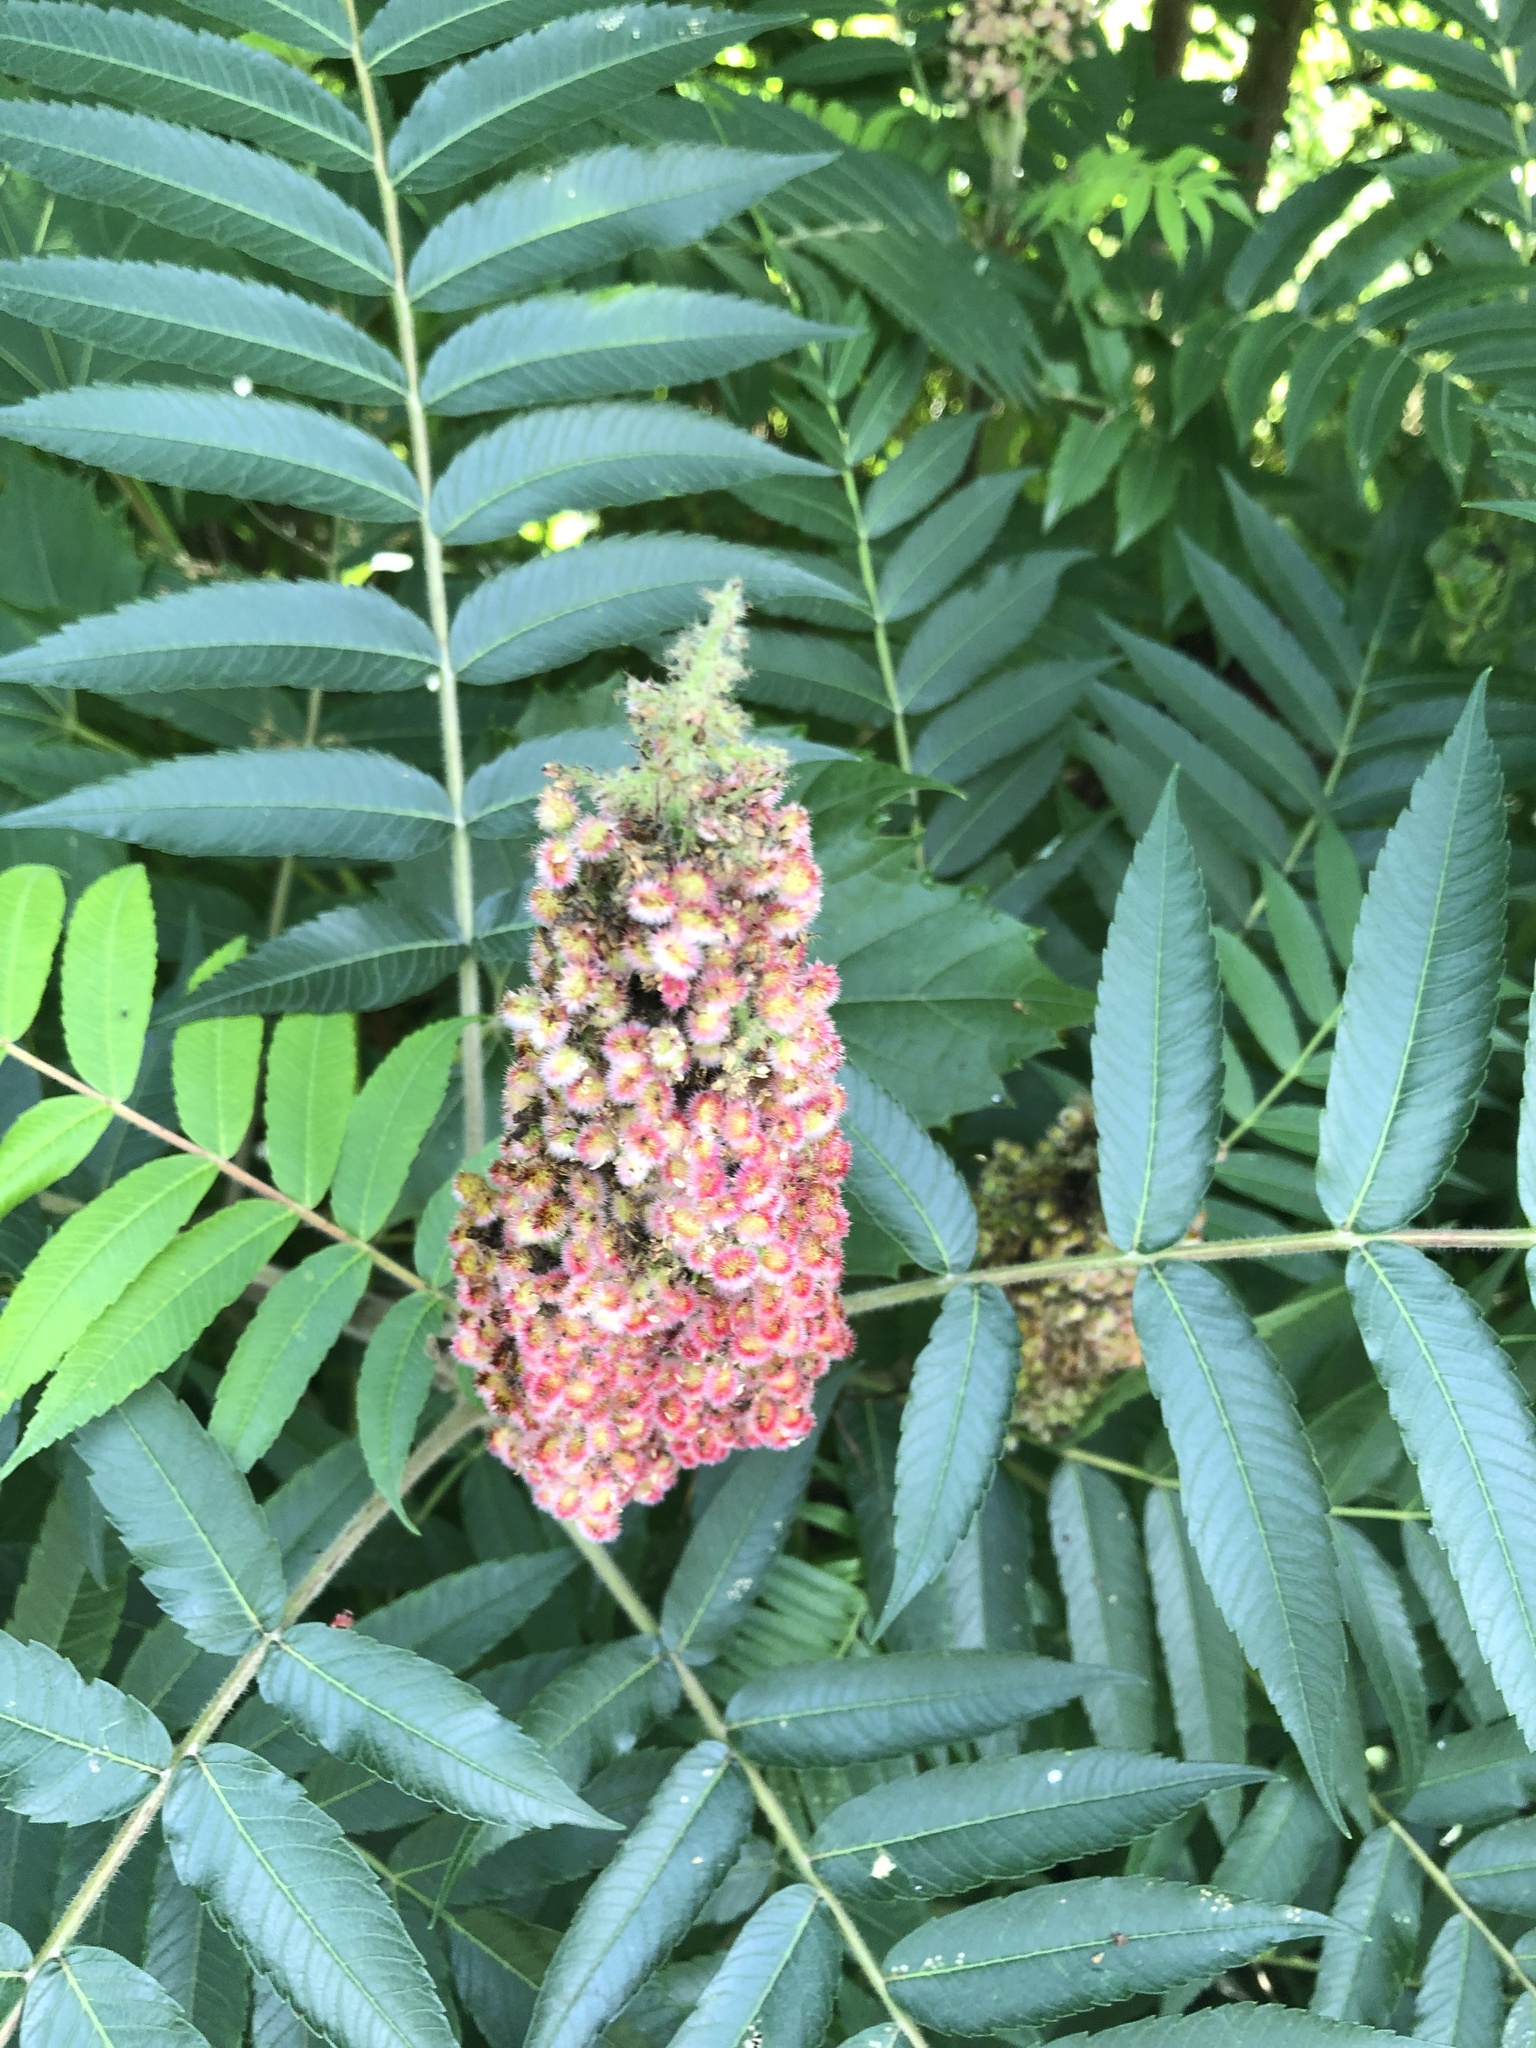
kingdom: Plantae
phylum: Tracheophyta
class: Magnoliopsida
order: Sapindales
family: Anacardiaceae
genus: Rhus
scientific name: Rhus typhina
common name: Staghorn sumac
